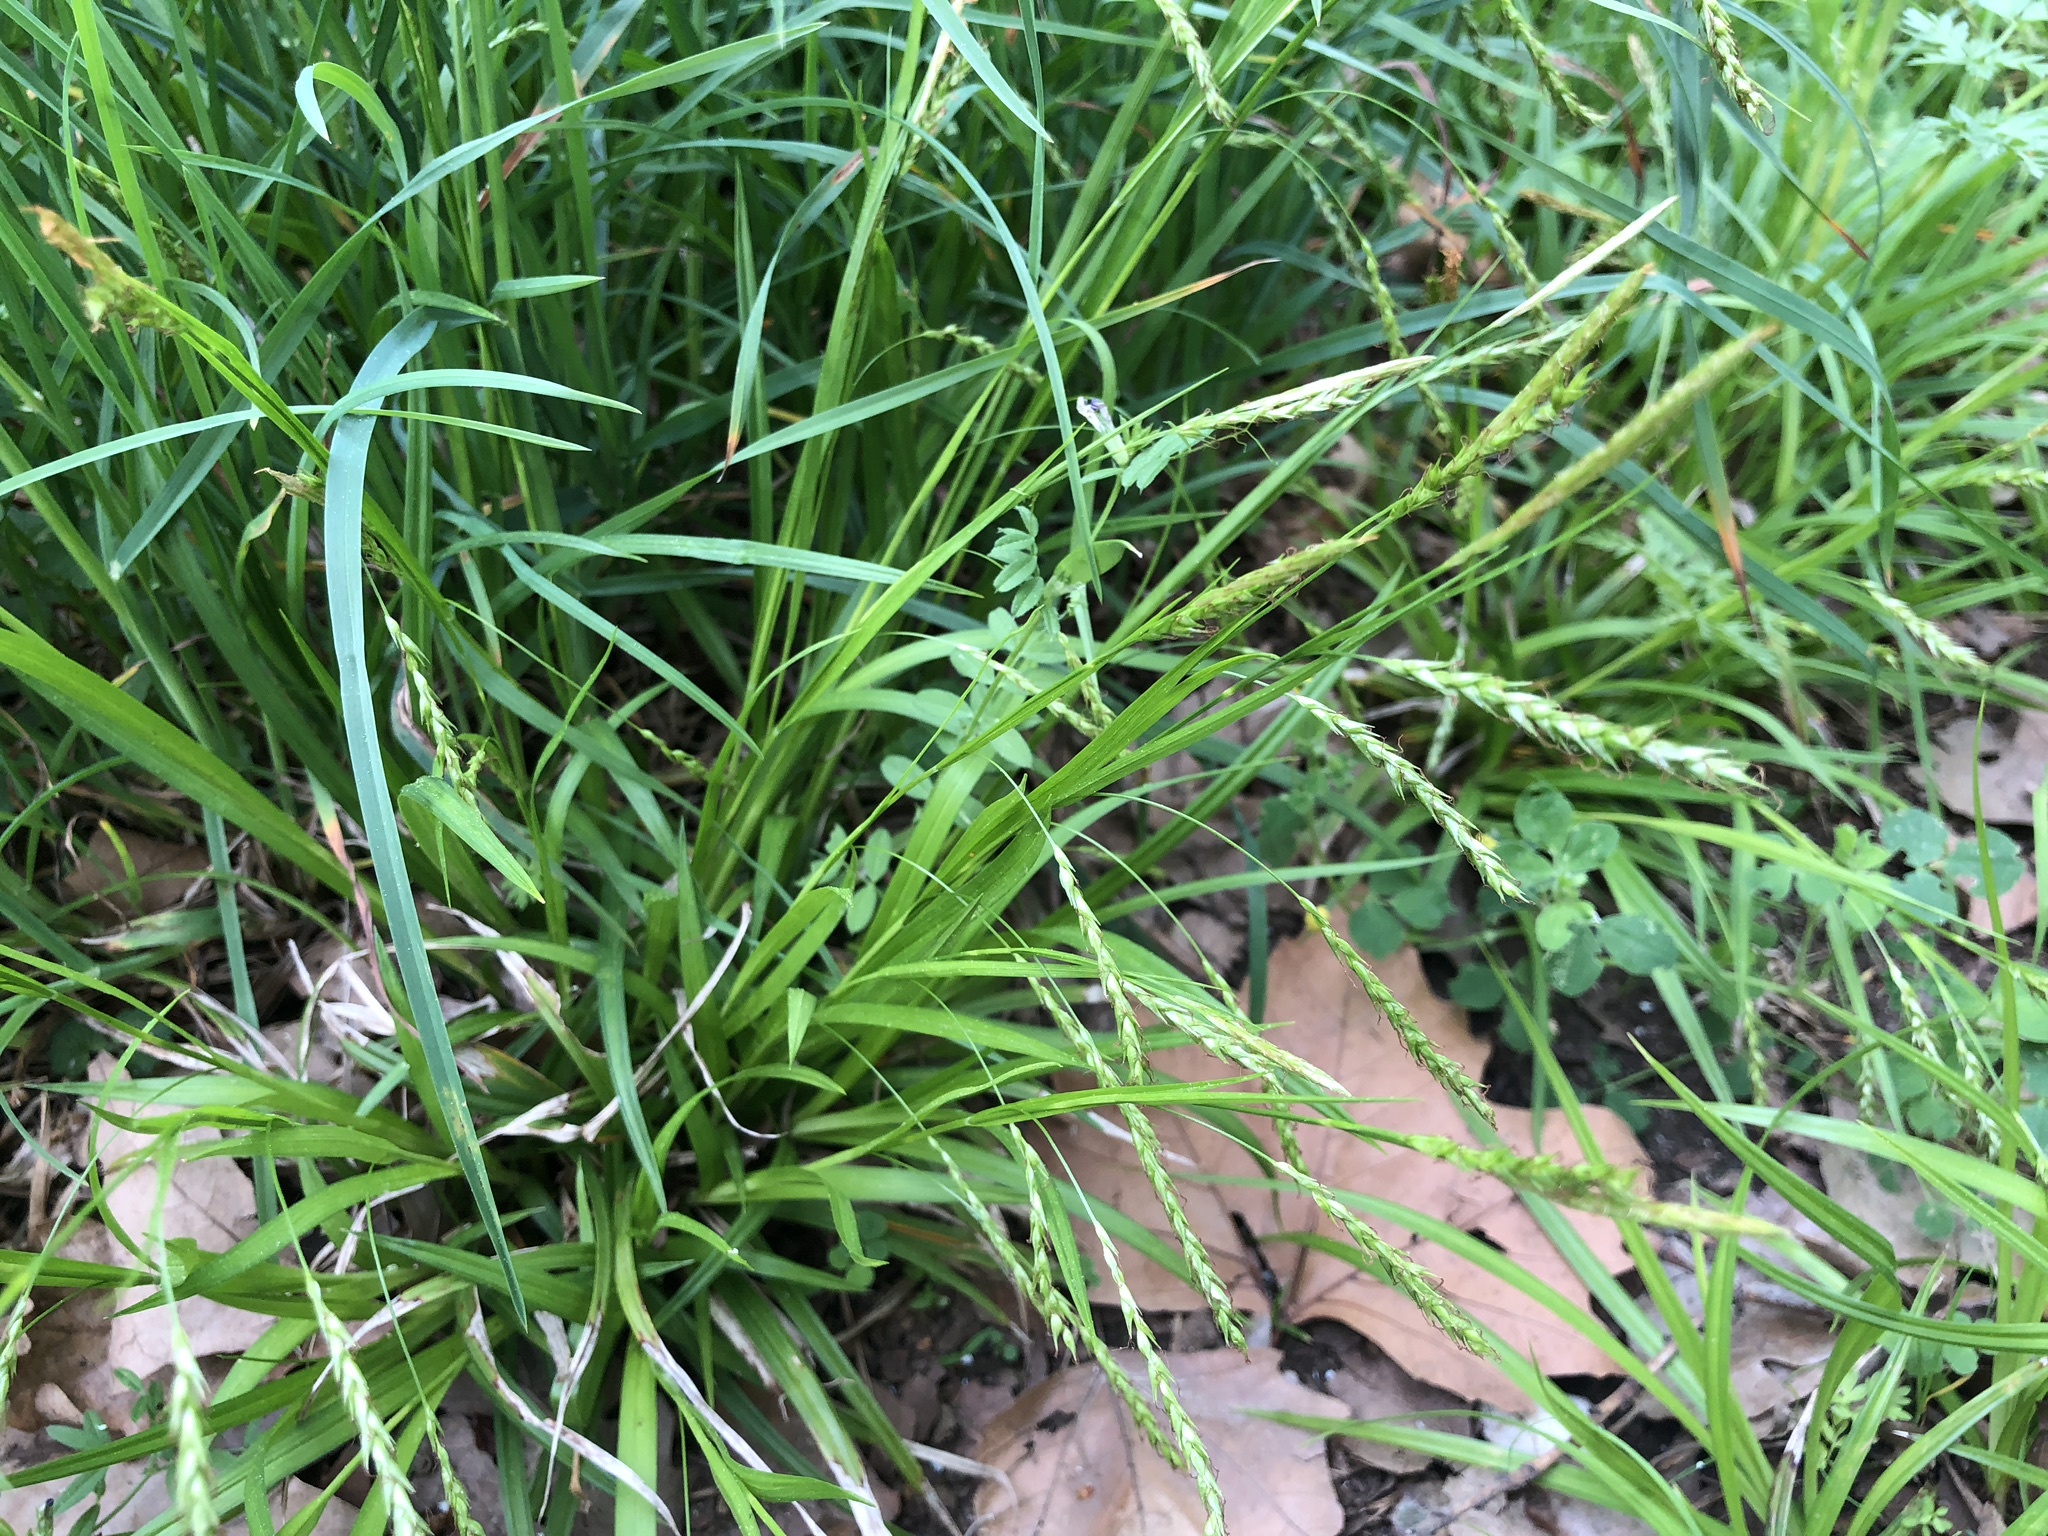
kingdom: Plantae
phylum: Tracheophyta
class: Liliopsida
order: Poales
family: Cyperaceae
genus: Carex
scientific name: Carex sylvatica
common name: Wood-sedge
